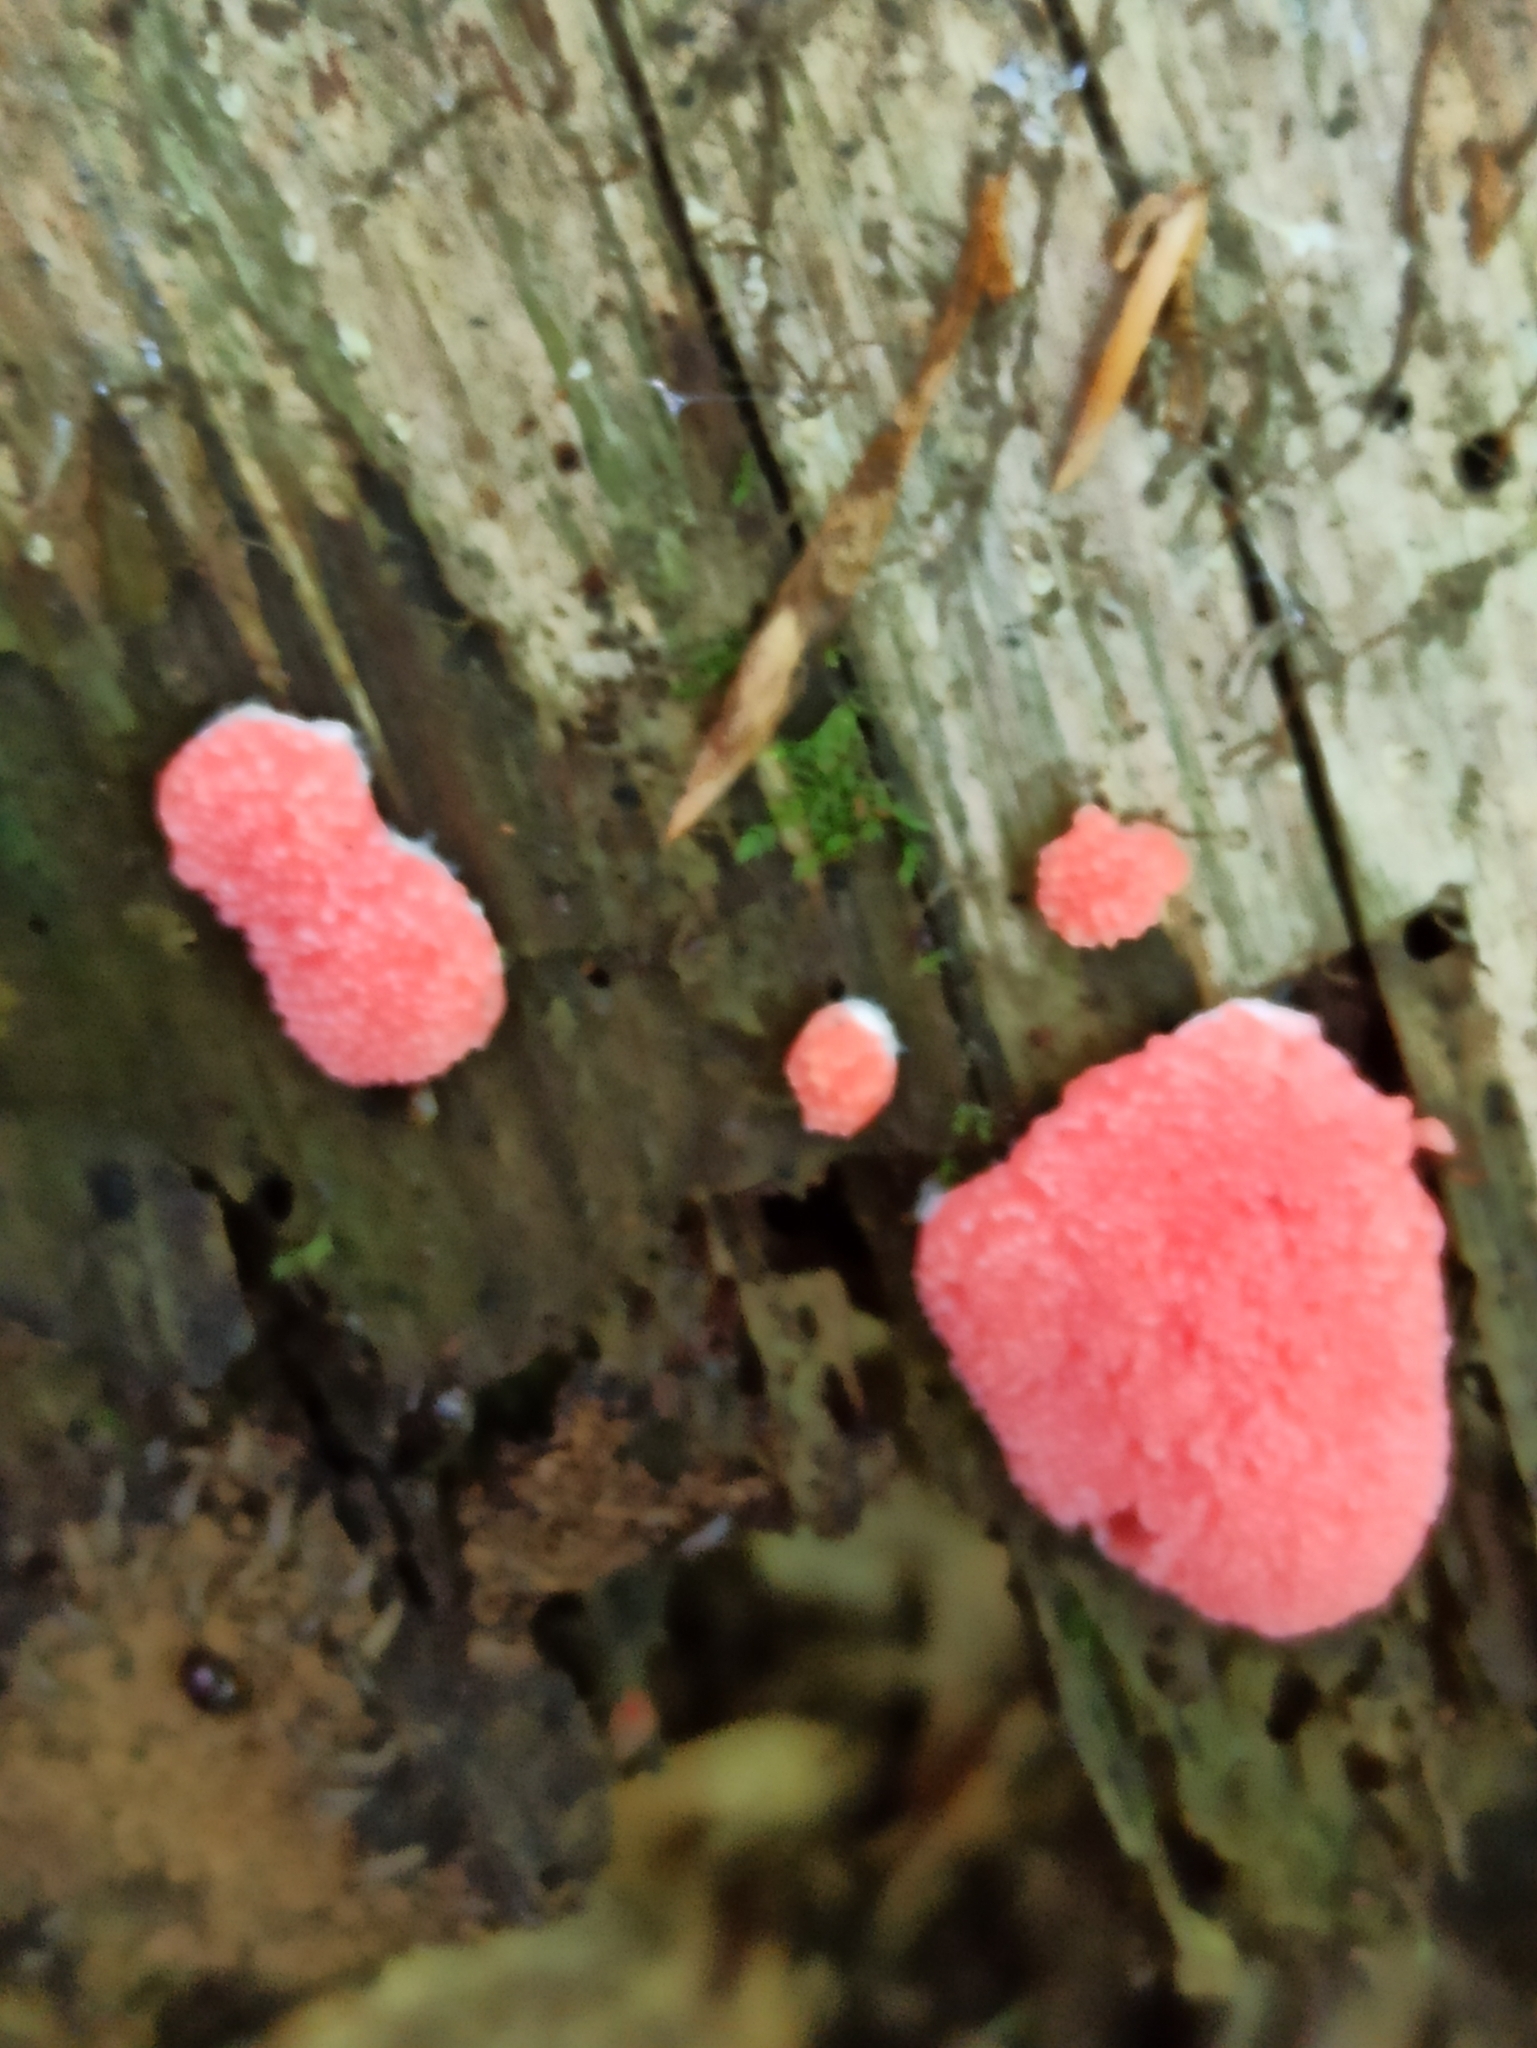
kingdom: Protozoa
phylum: Mycetozoa
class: Myxomycetes
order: Cribrariales
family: Tubiferaceae
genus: Tubifera
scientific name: Tubifera ferruginosa
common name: Red raspberry slime mold
